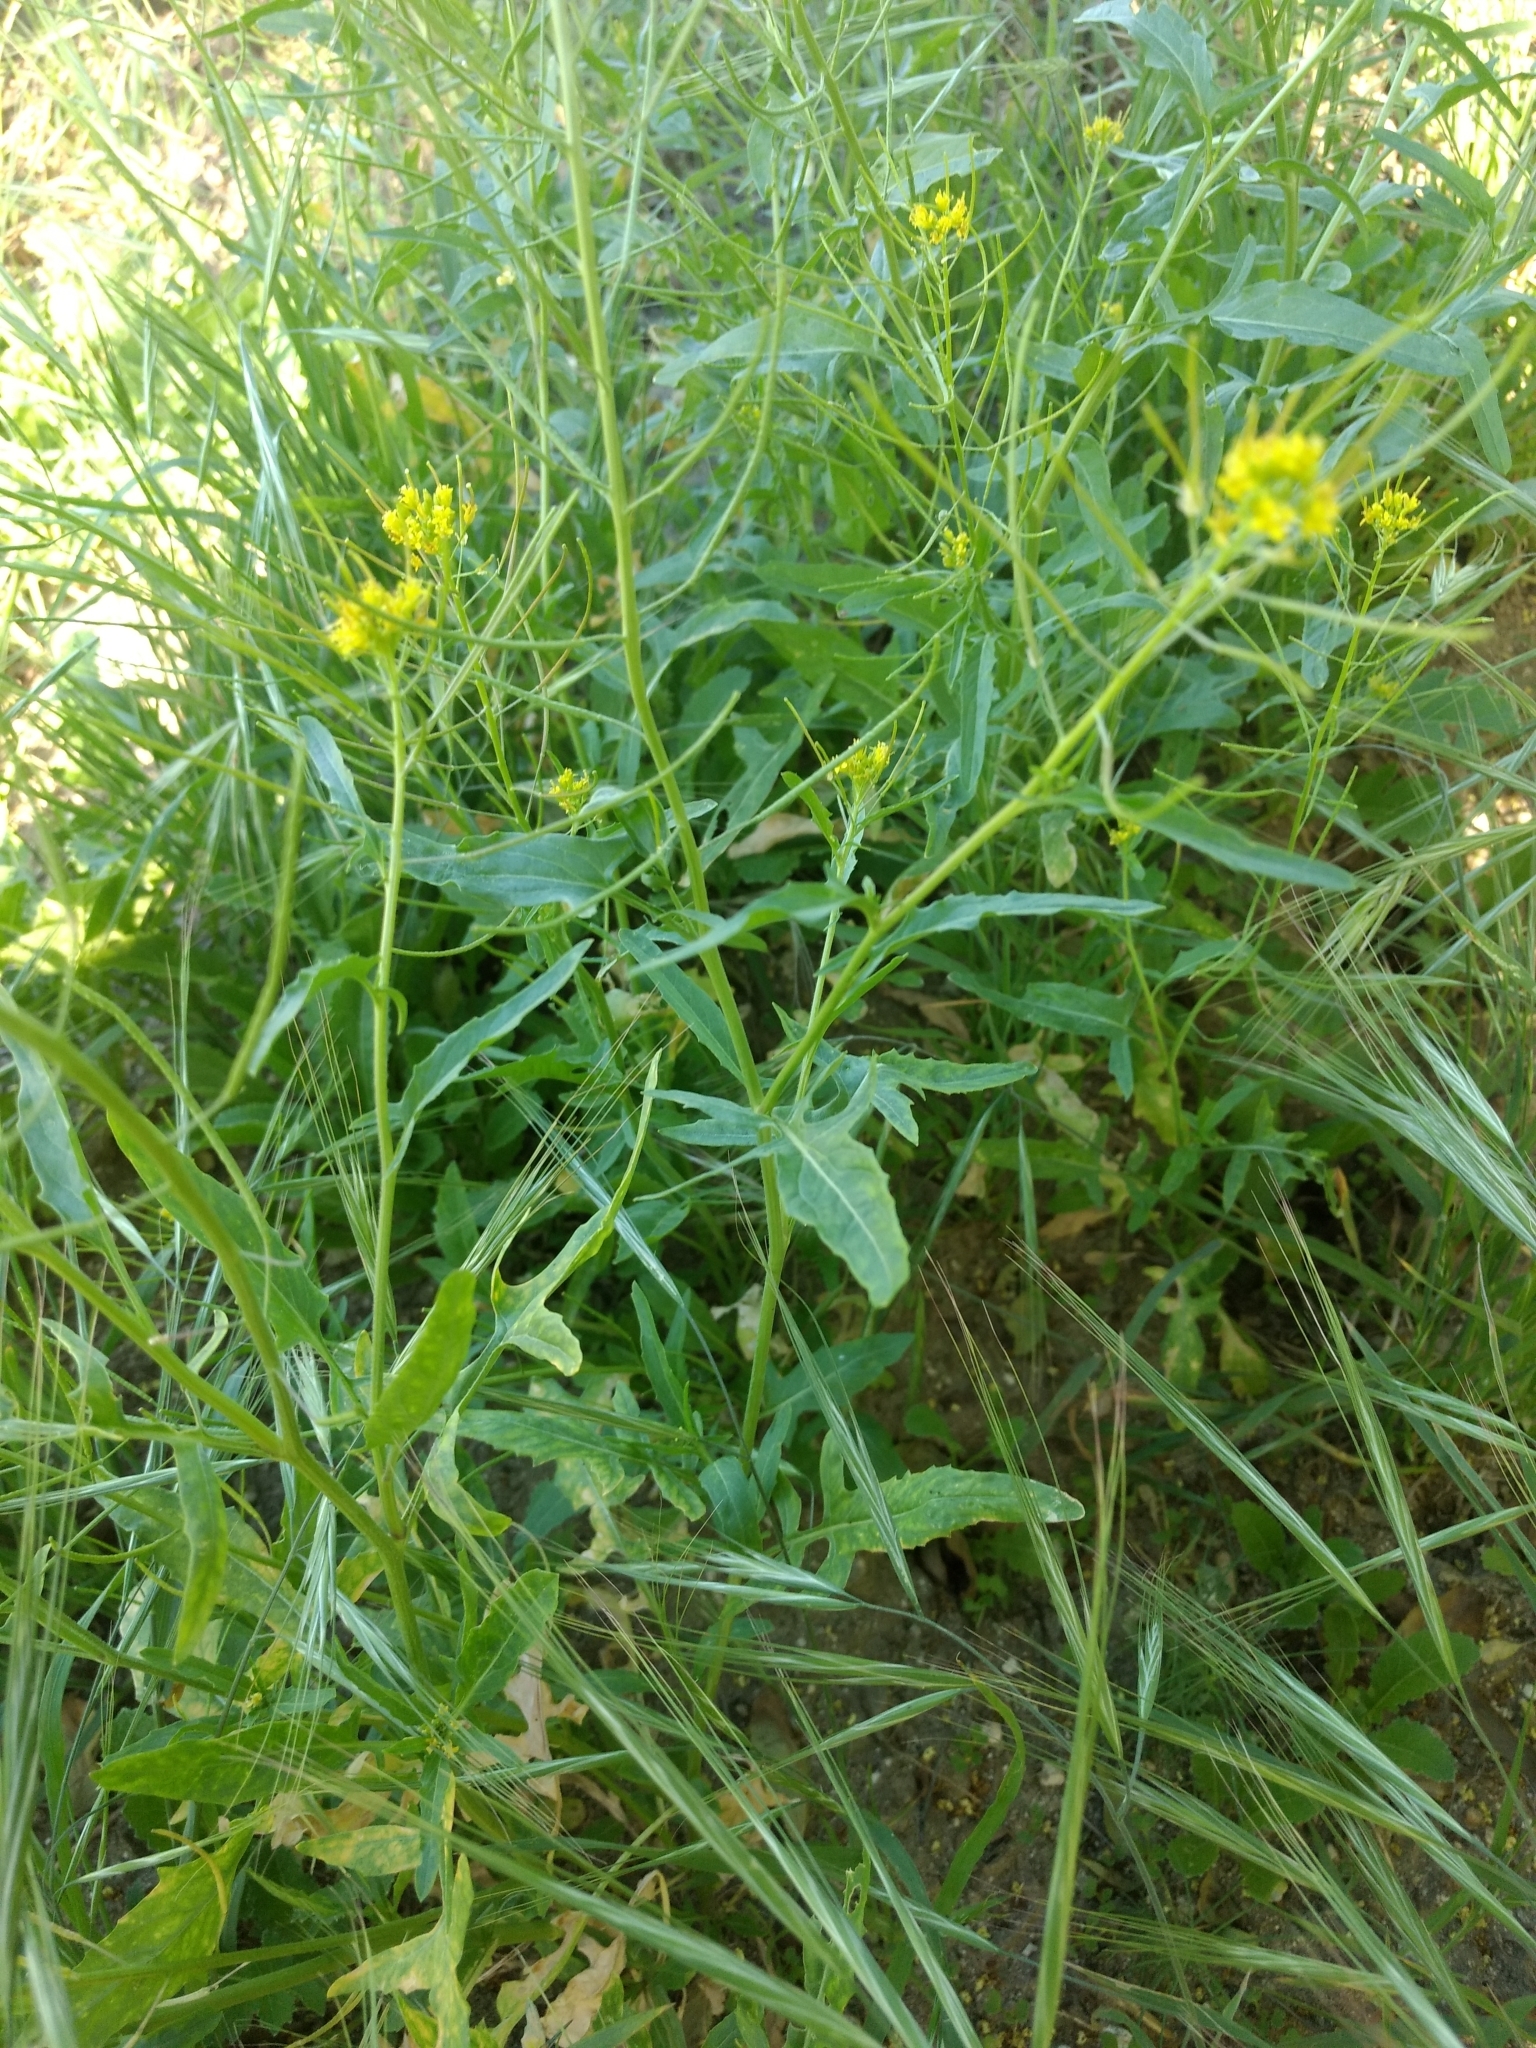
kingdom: Plantae
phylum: Tracheophyta
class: Magnoliopsida
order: Brassicales
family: Brassicaceae
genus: Sisymbrium
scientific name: Sisymbrium irio
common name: London rocket
